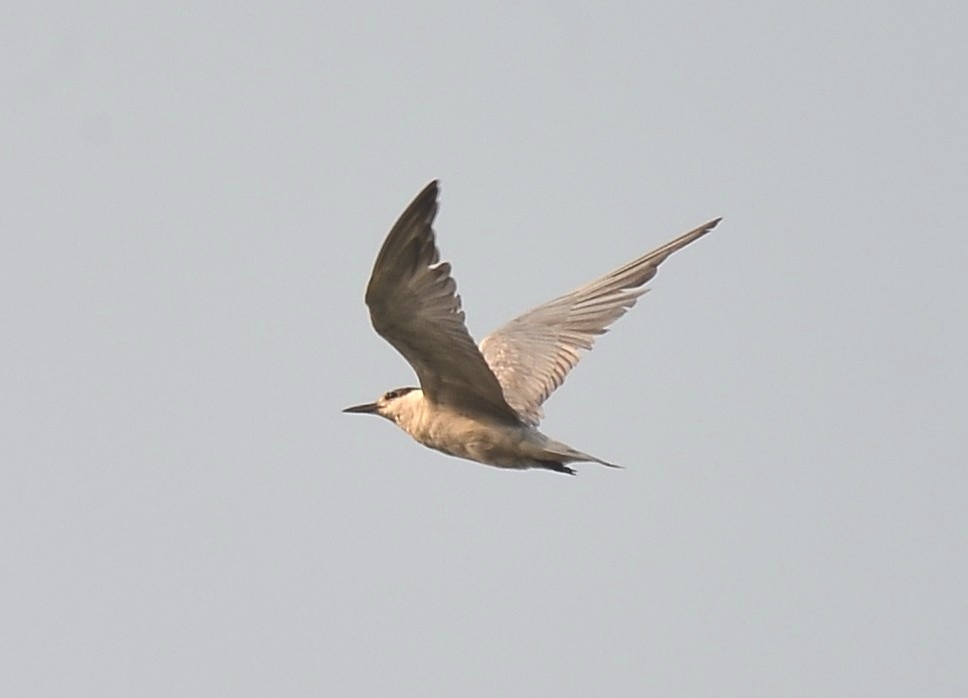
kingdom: Animalia
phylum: Chordata
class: Aves
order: Charadriiformes
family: Laridae
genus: Chlidonias
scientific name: Chlidonias hybrida
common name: Whiskered tern
